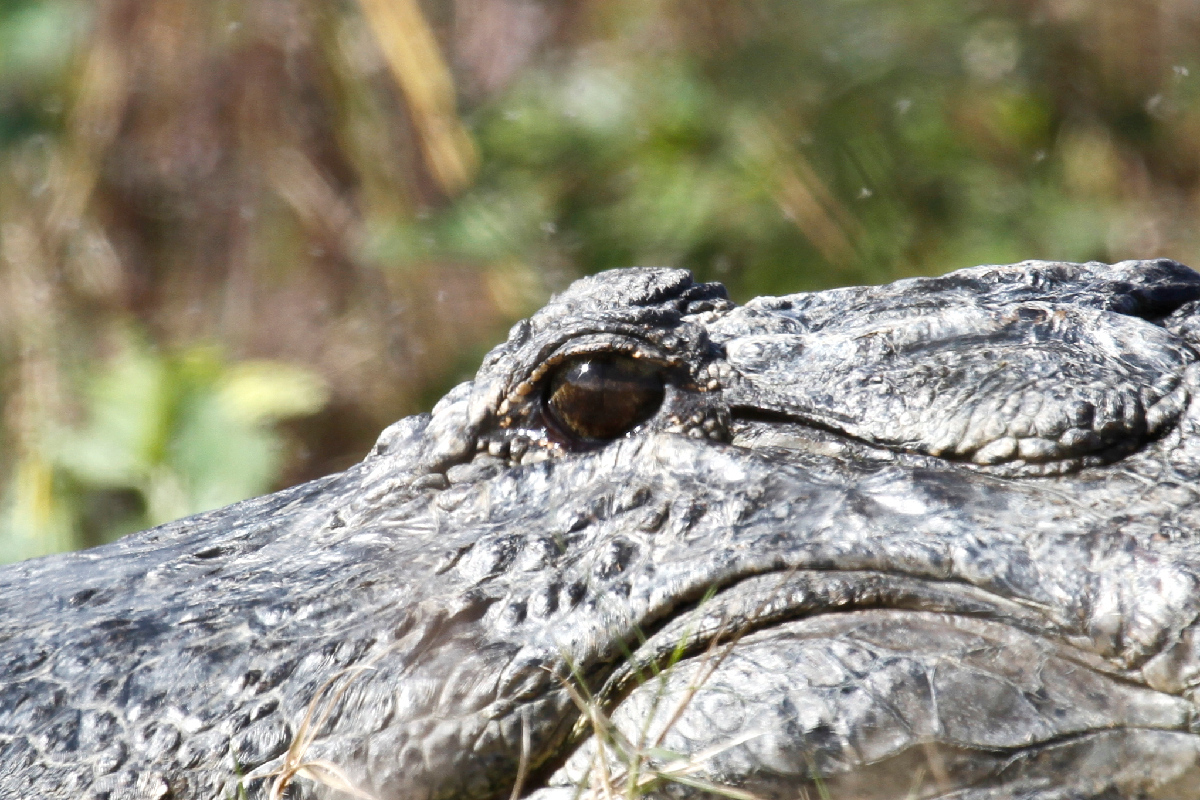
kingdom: Animalia
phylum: Chordata
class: Crocodylia
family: Alligatoridae
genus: Alligator
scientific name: Alligator mississippiensis
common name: American alligator
